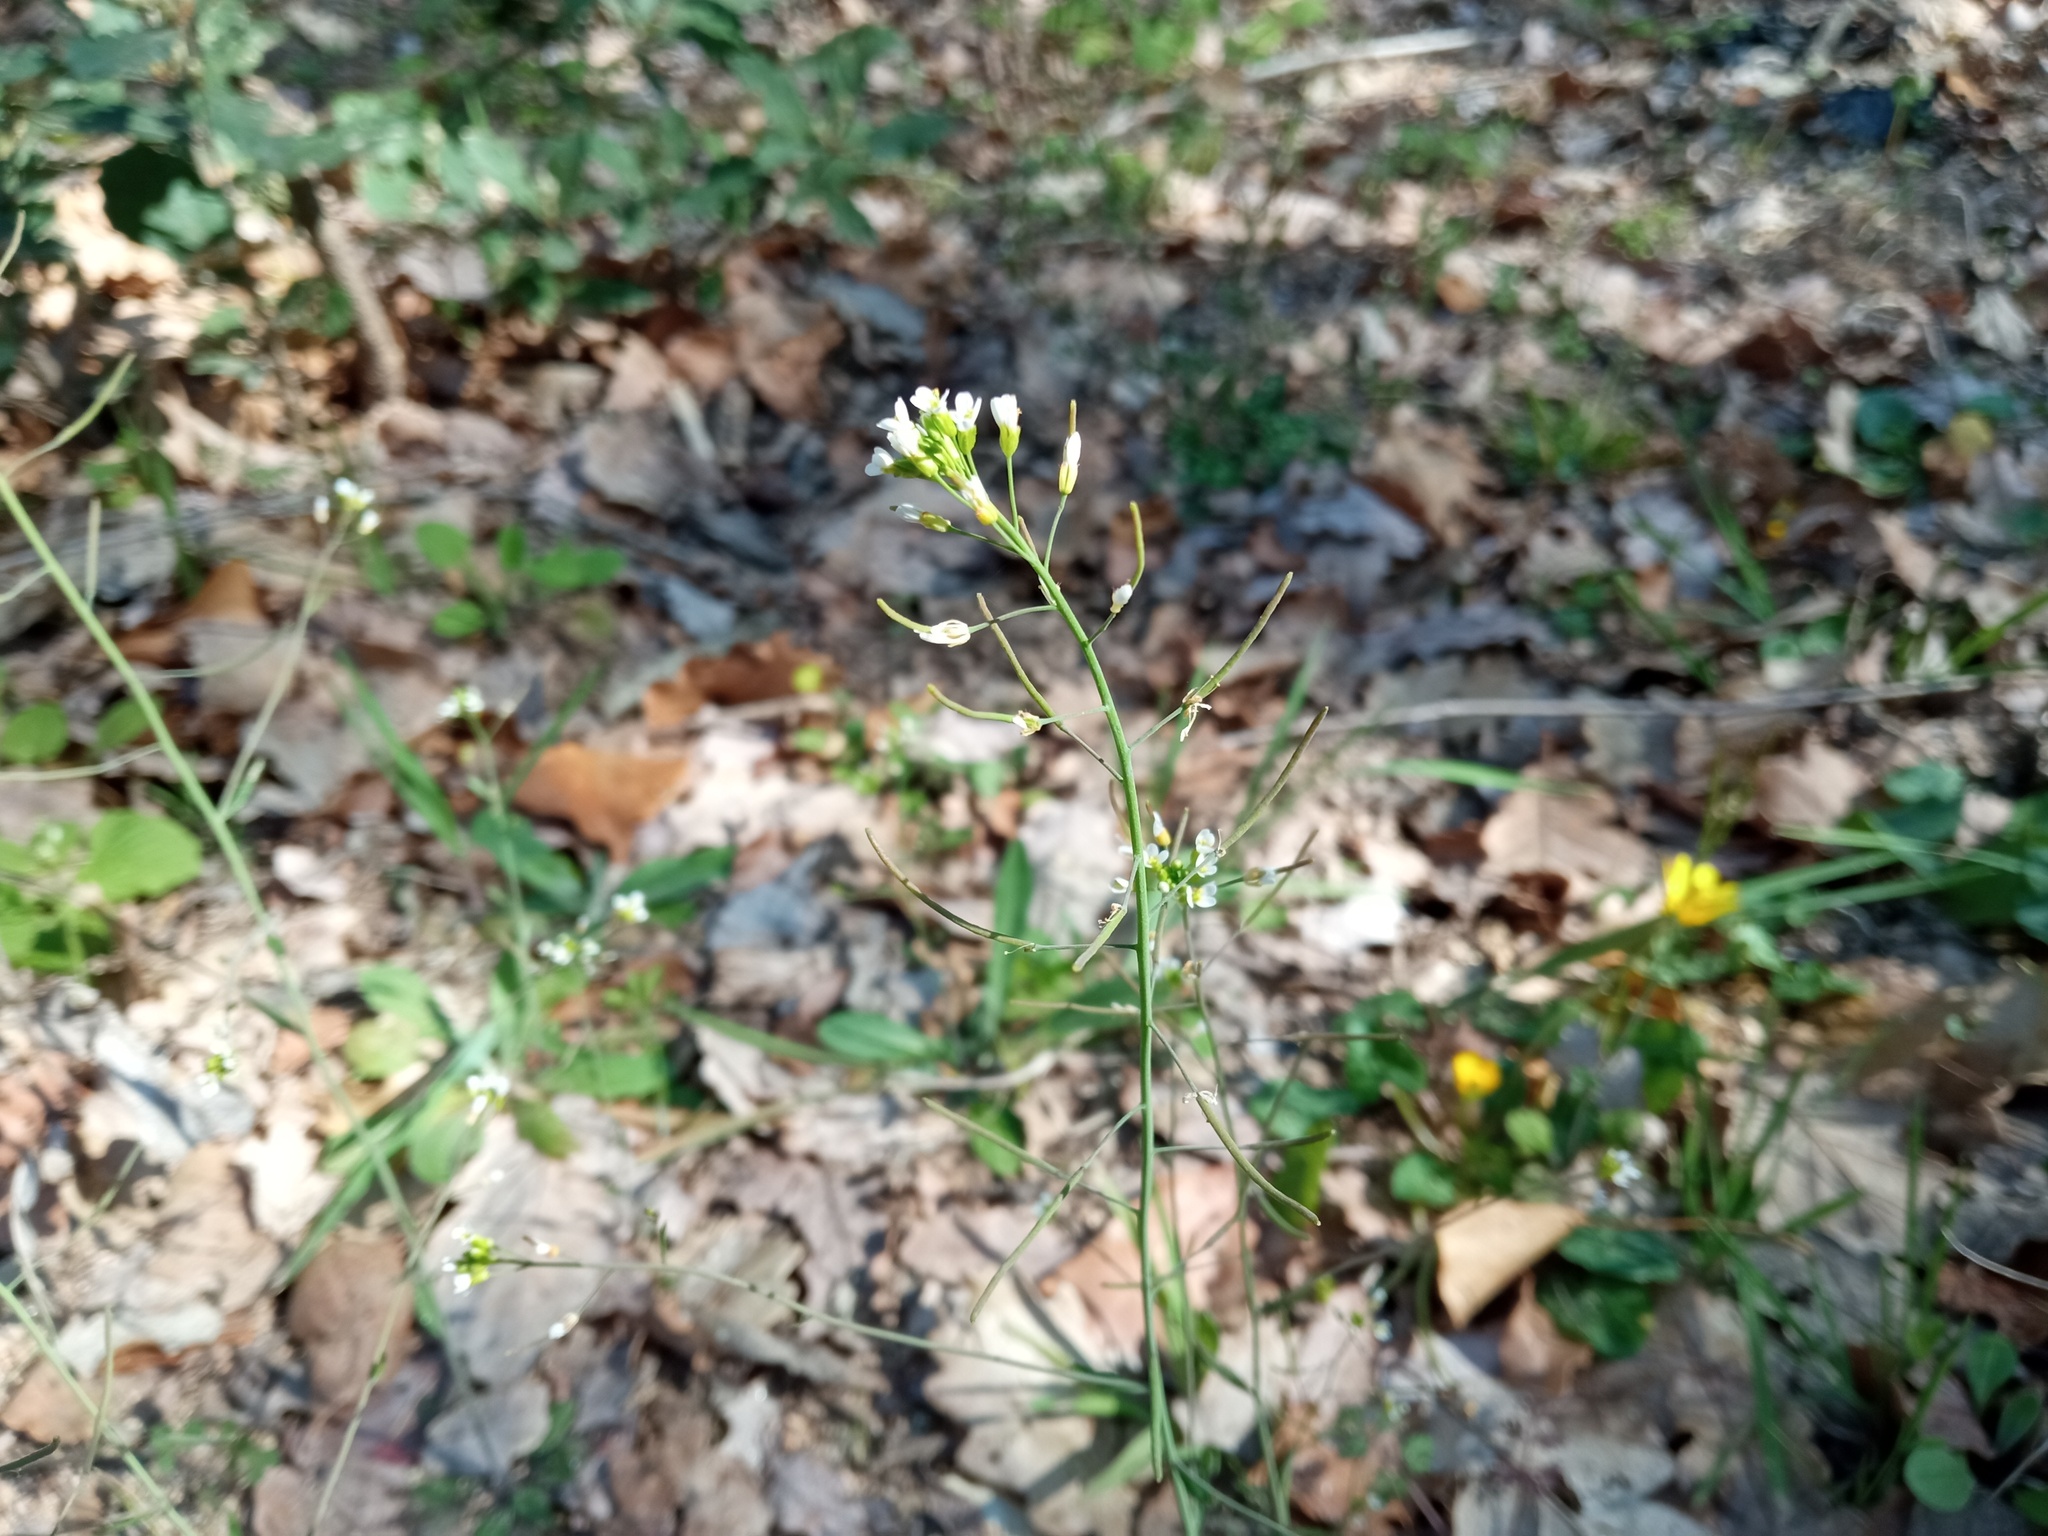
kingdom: Plantae
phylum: Tracheophyta
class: Magnoliopsida
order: Brassicales
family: Brassicaceae
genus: Arabidopsis
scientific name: Arabidopsis thaliana
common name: Thale cress
